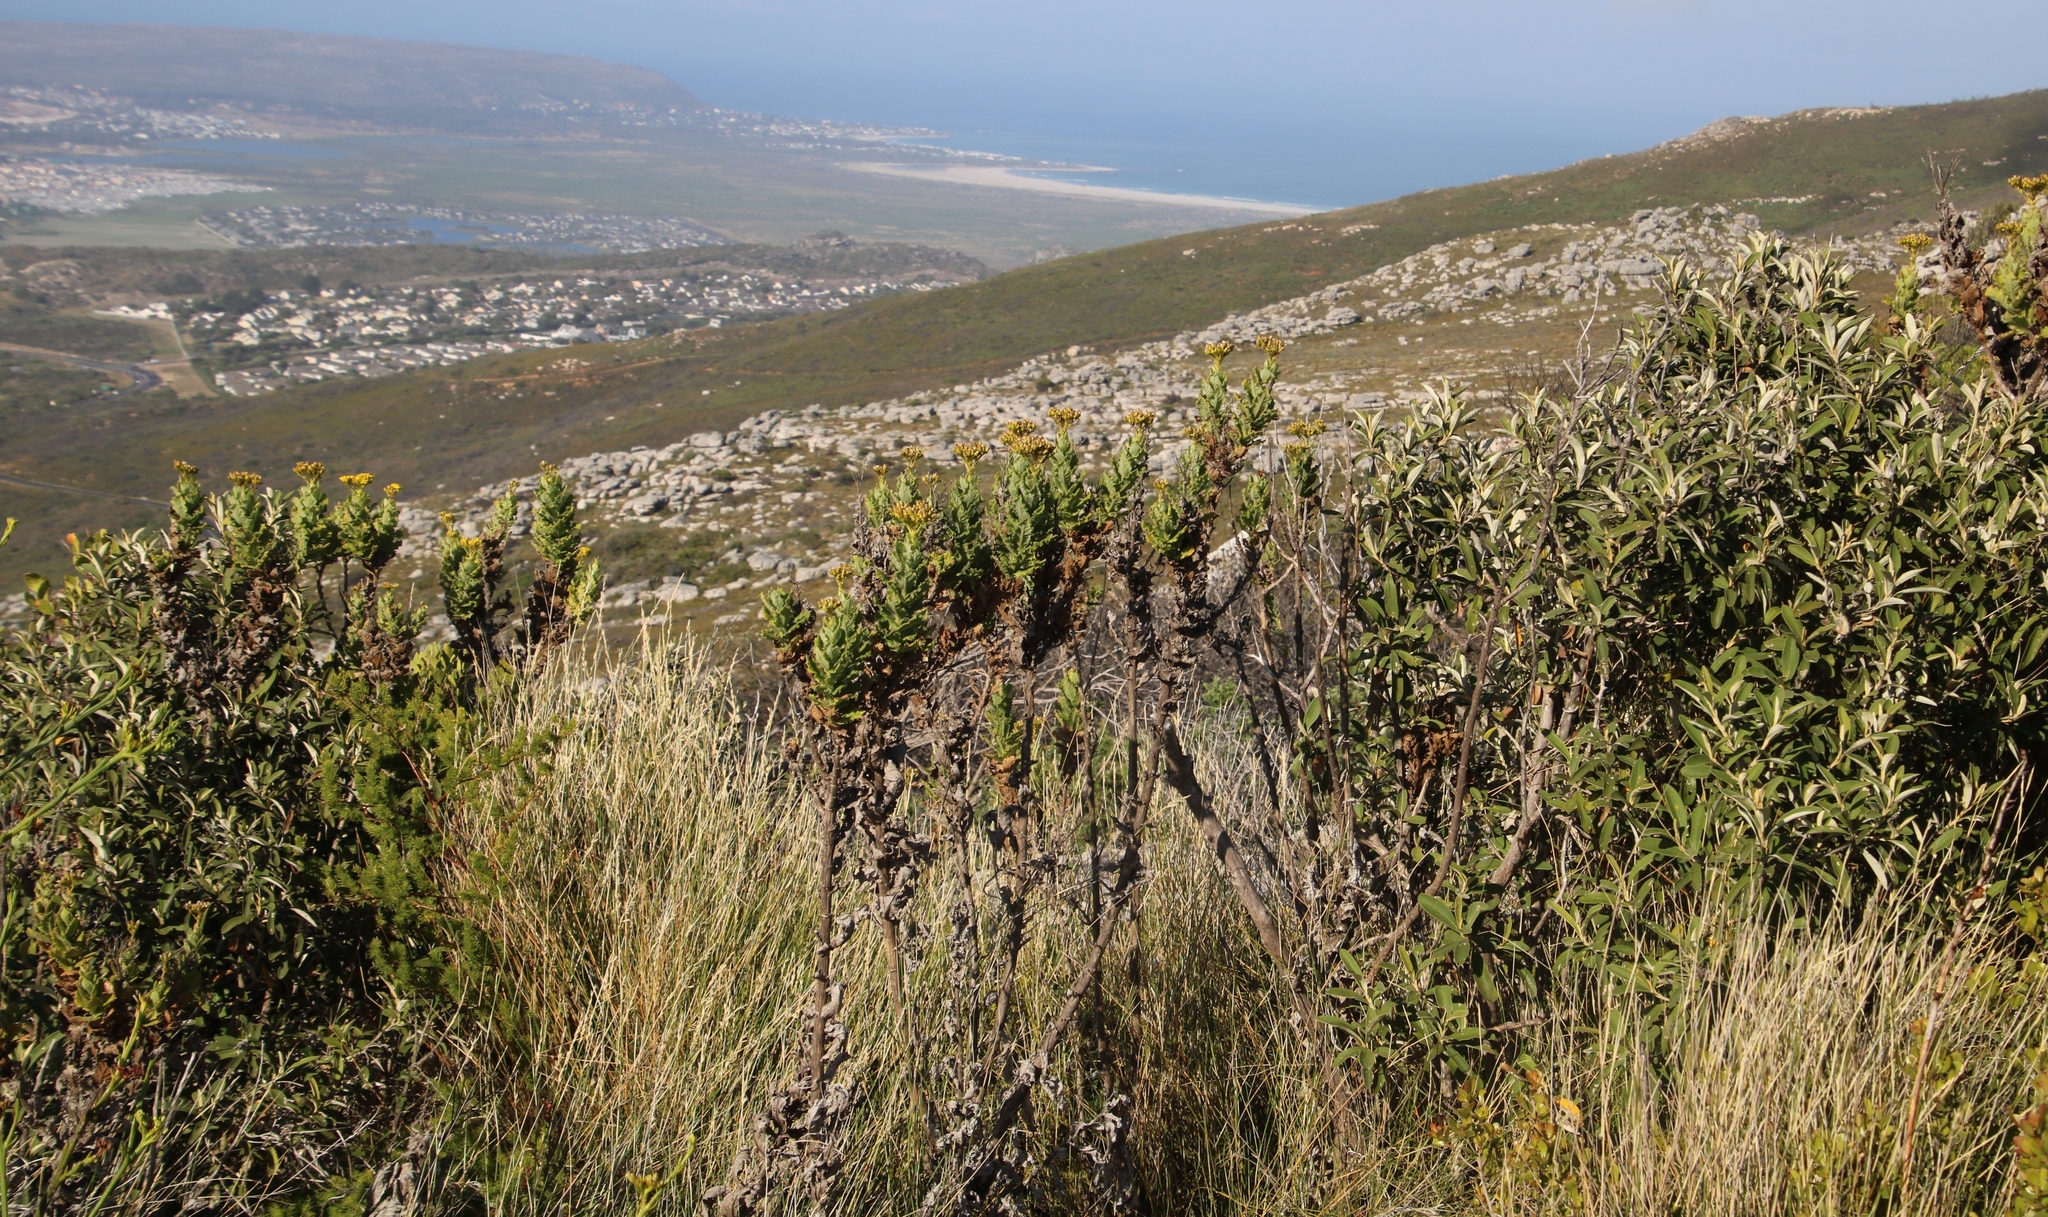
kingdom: Plantae
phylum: Tracheophyta
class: Magnoliopsida
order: Asterales
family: Asteraceae
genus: Senecio
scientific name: Senecio rigidus
